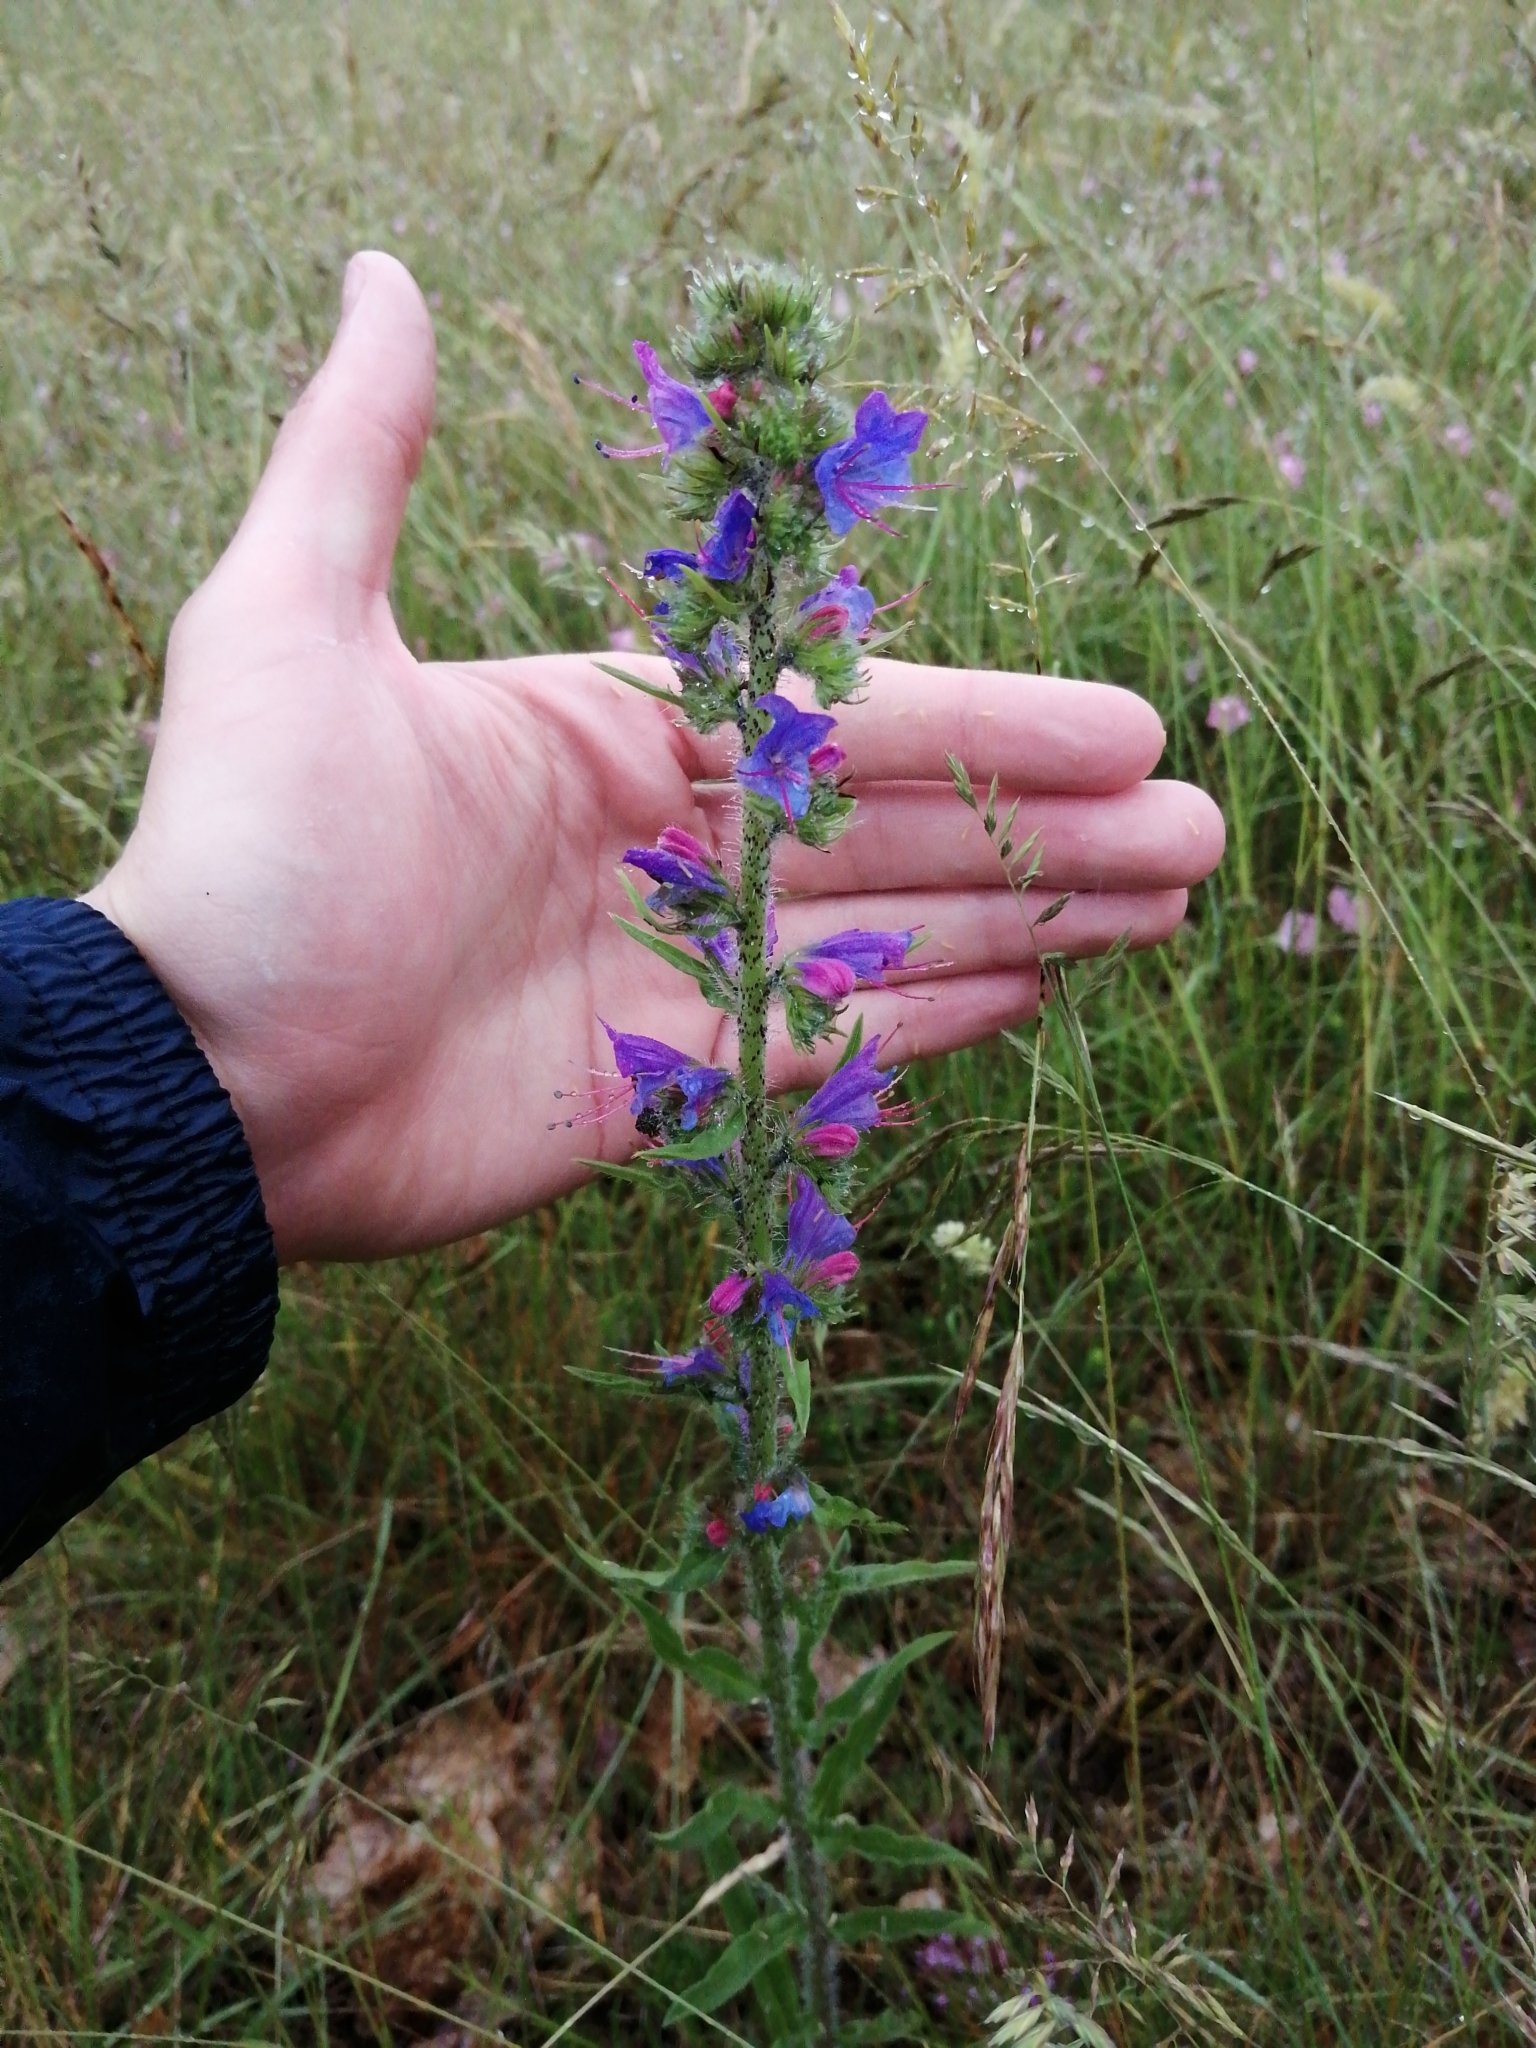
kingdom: Plantae
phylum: Tracheophyta
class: Magnoliopsida
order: Boraginales
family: Boraginaceae
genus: Echium
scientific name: Echium vulgare
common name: Common viper's bugloss
